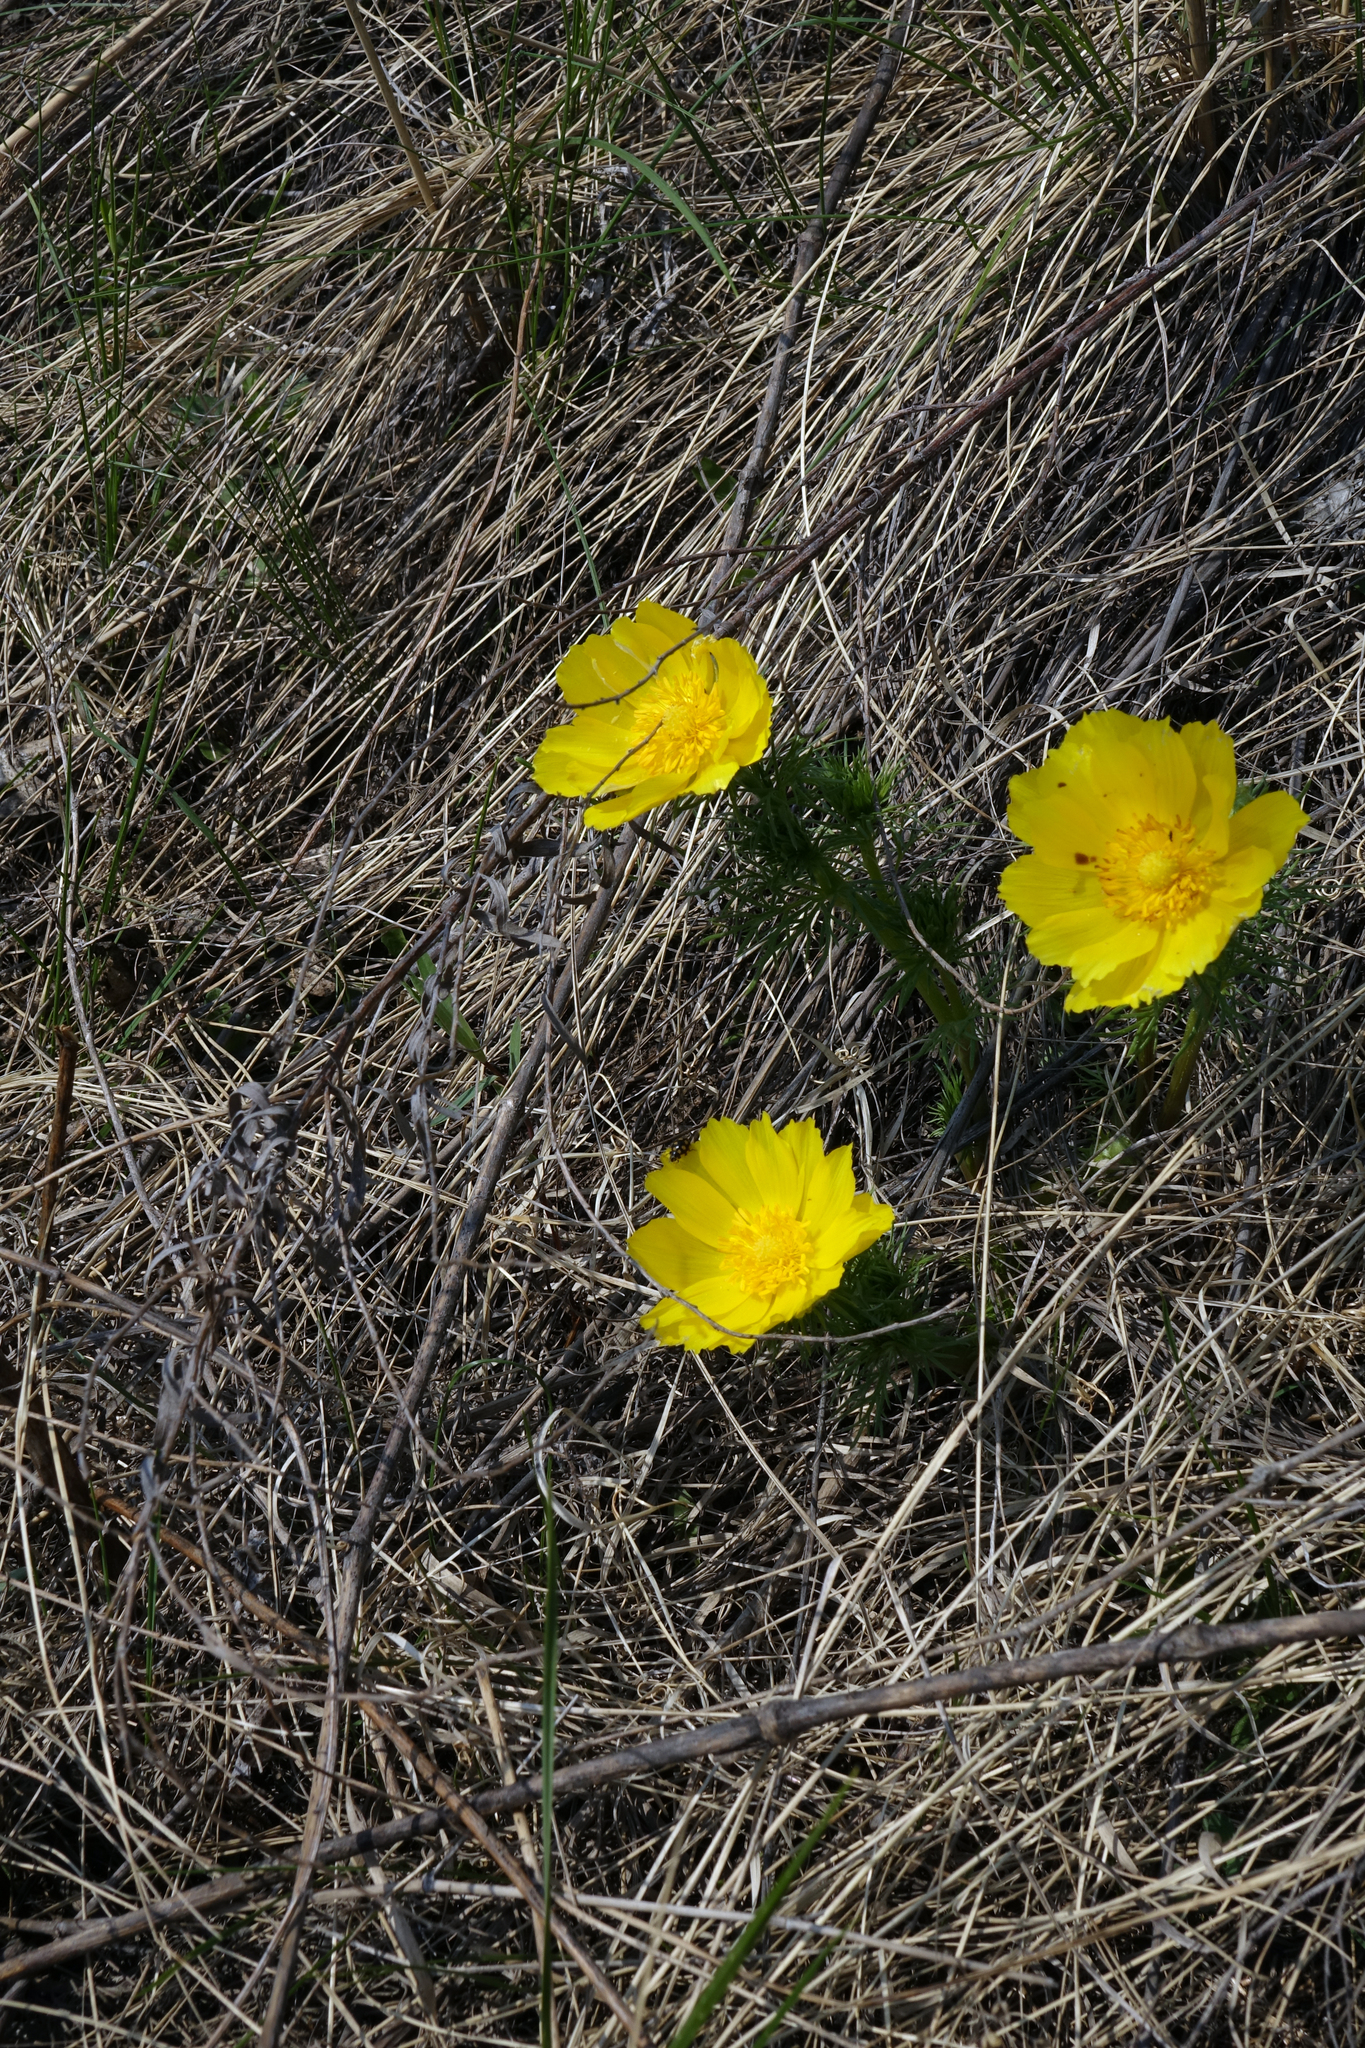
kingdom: Plantae
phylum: Tracheophyta
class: Magnoliopsida
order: Ranunculales
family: Ranunculaceae
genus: Adonis
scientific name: Adonis vernalis
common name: Yellow pheasants-eye
